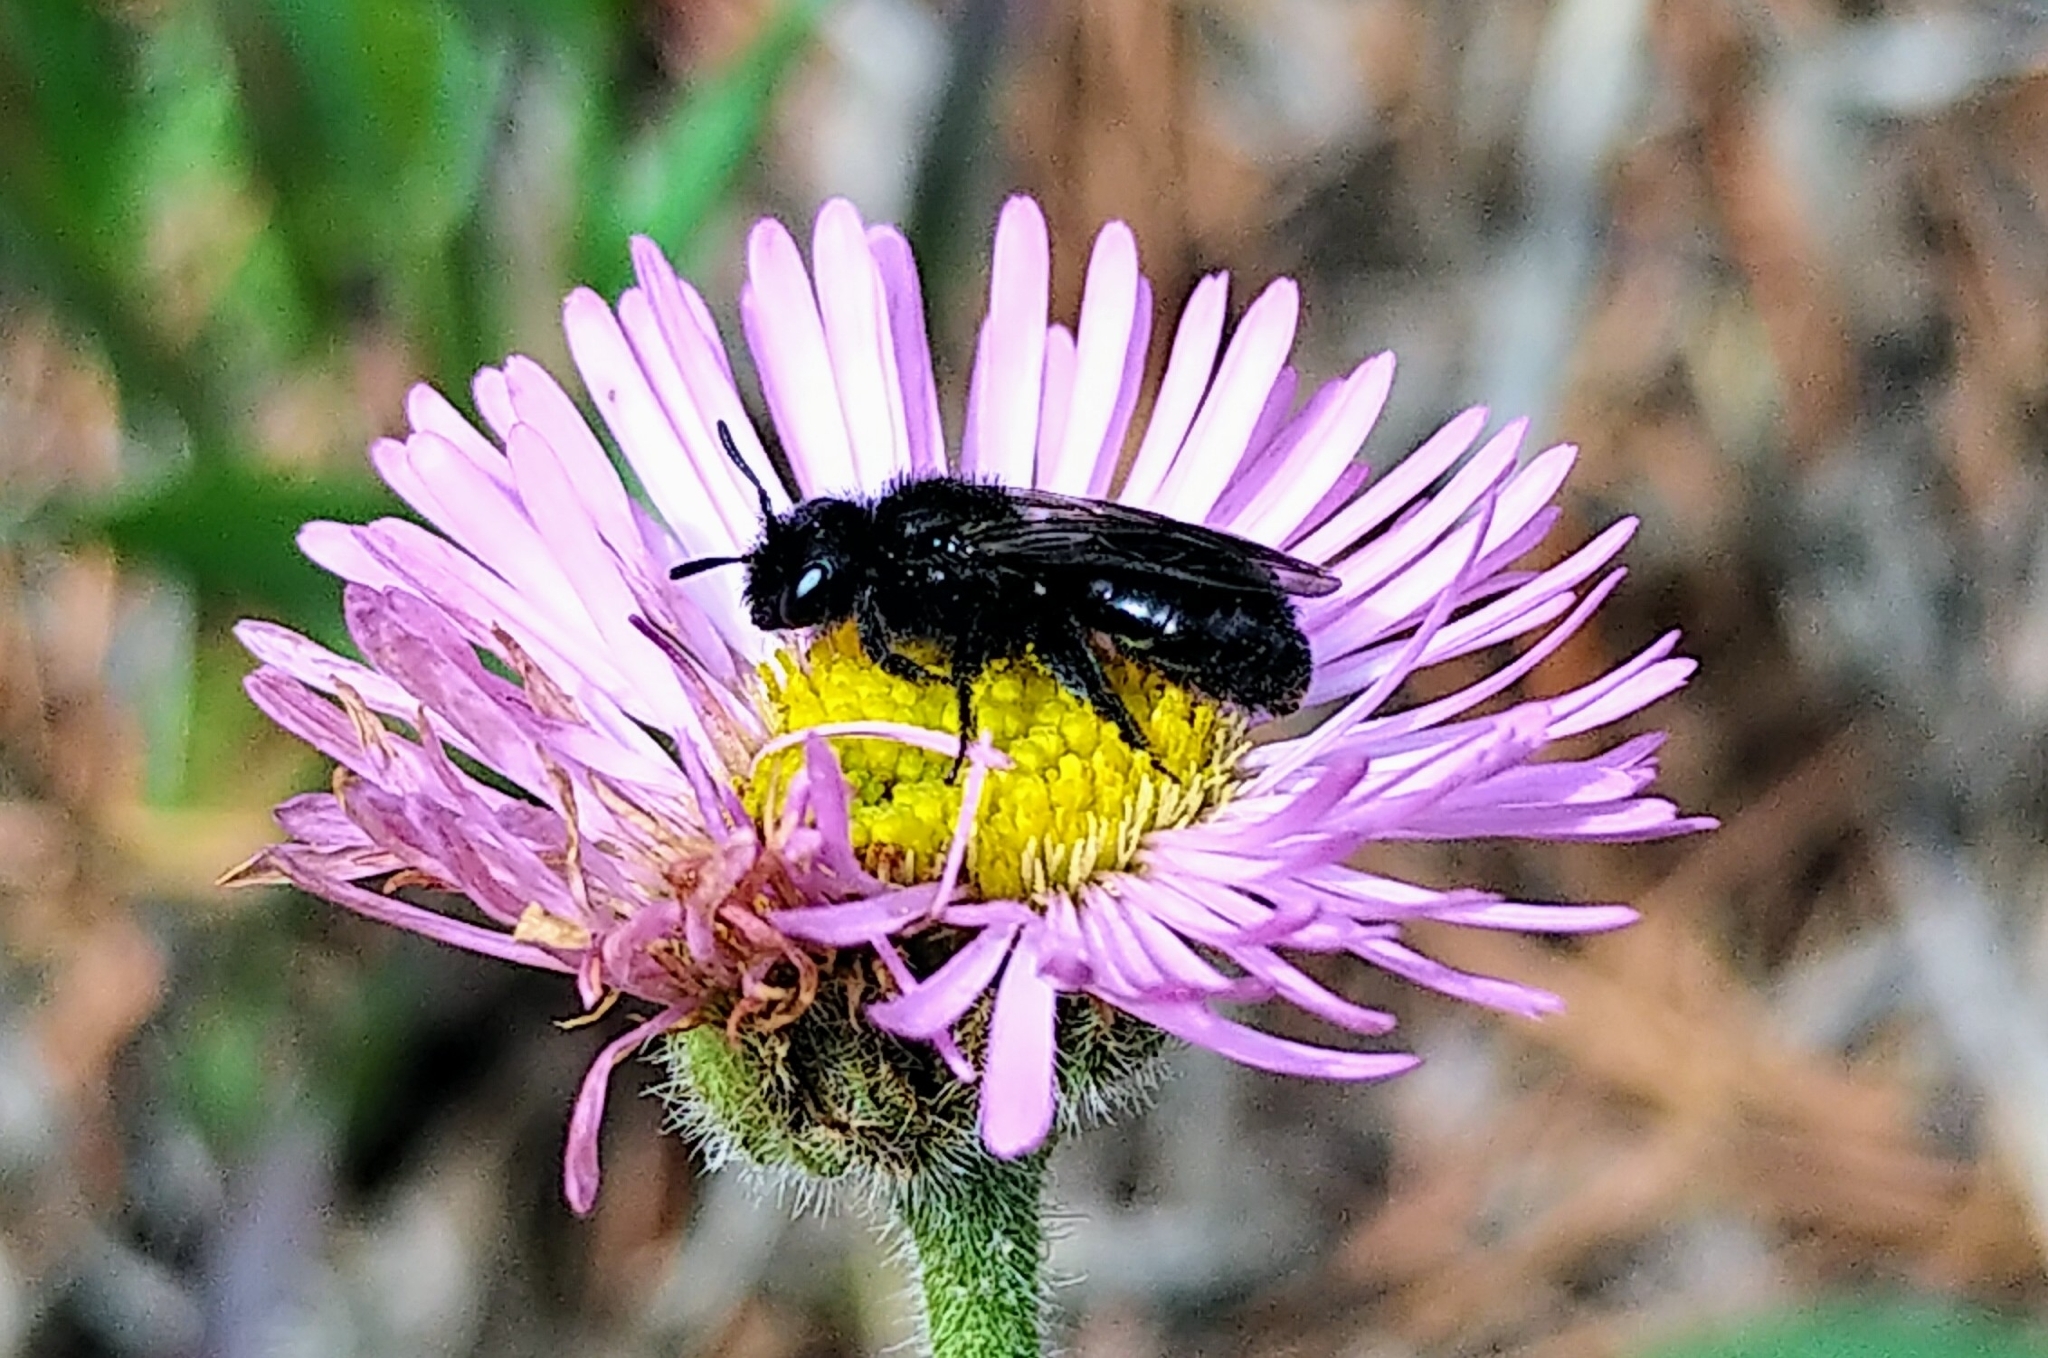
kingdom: Animalia
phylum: Arthropoda
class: Insecta
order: Hymenoptera
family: Halictidae
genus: Dufourea
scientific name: Dufourea maura
